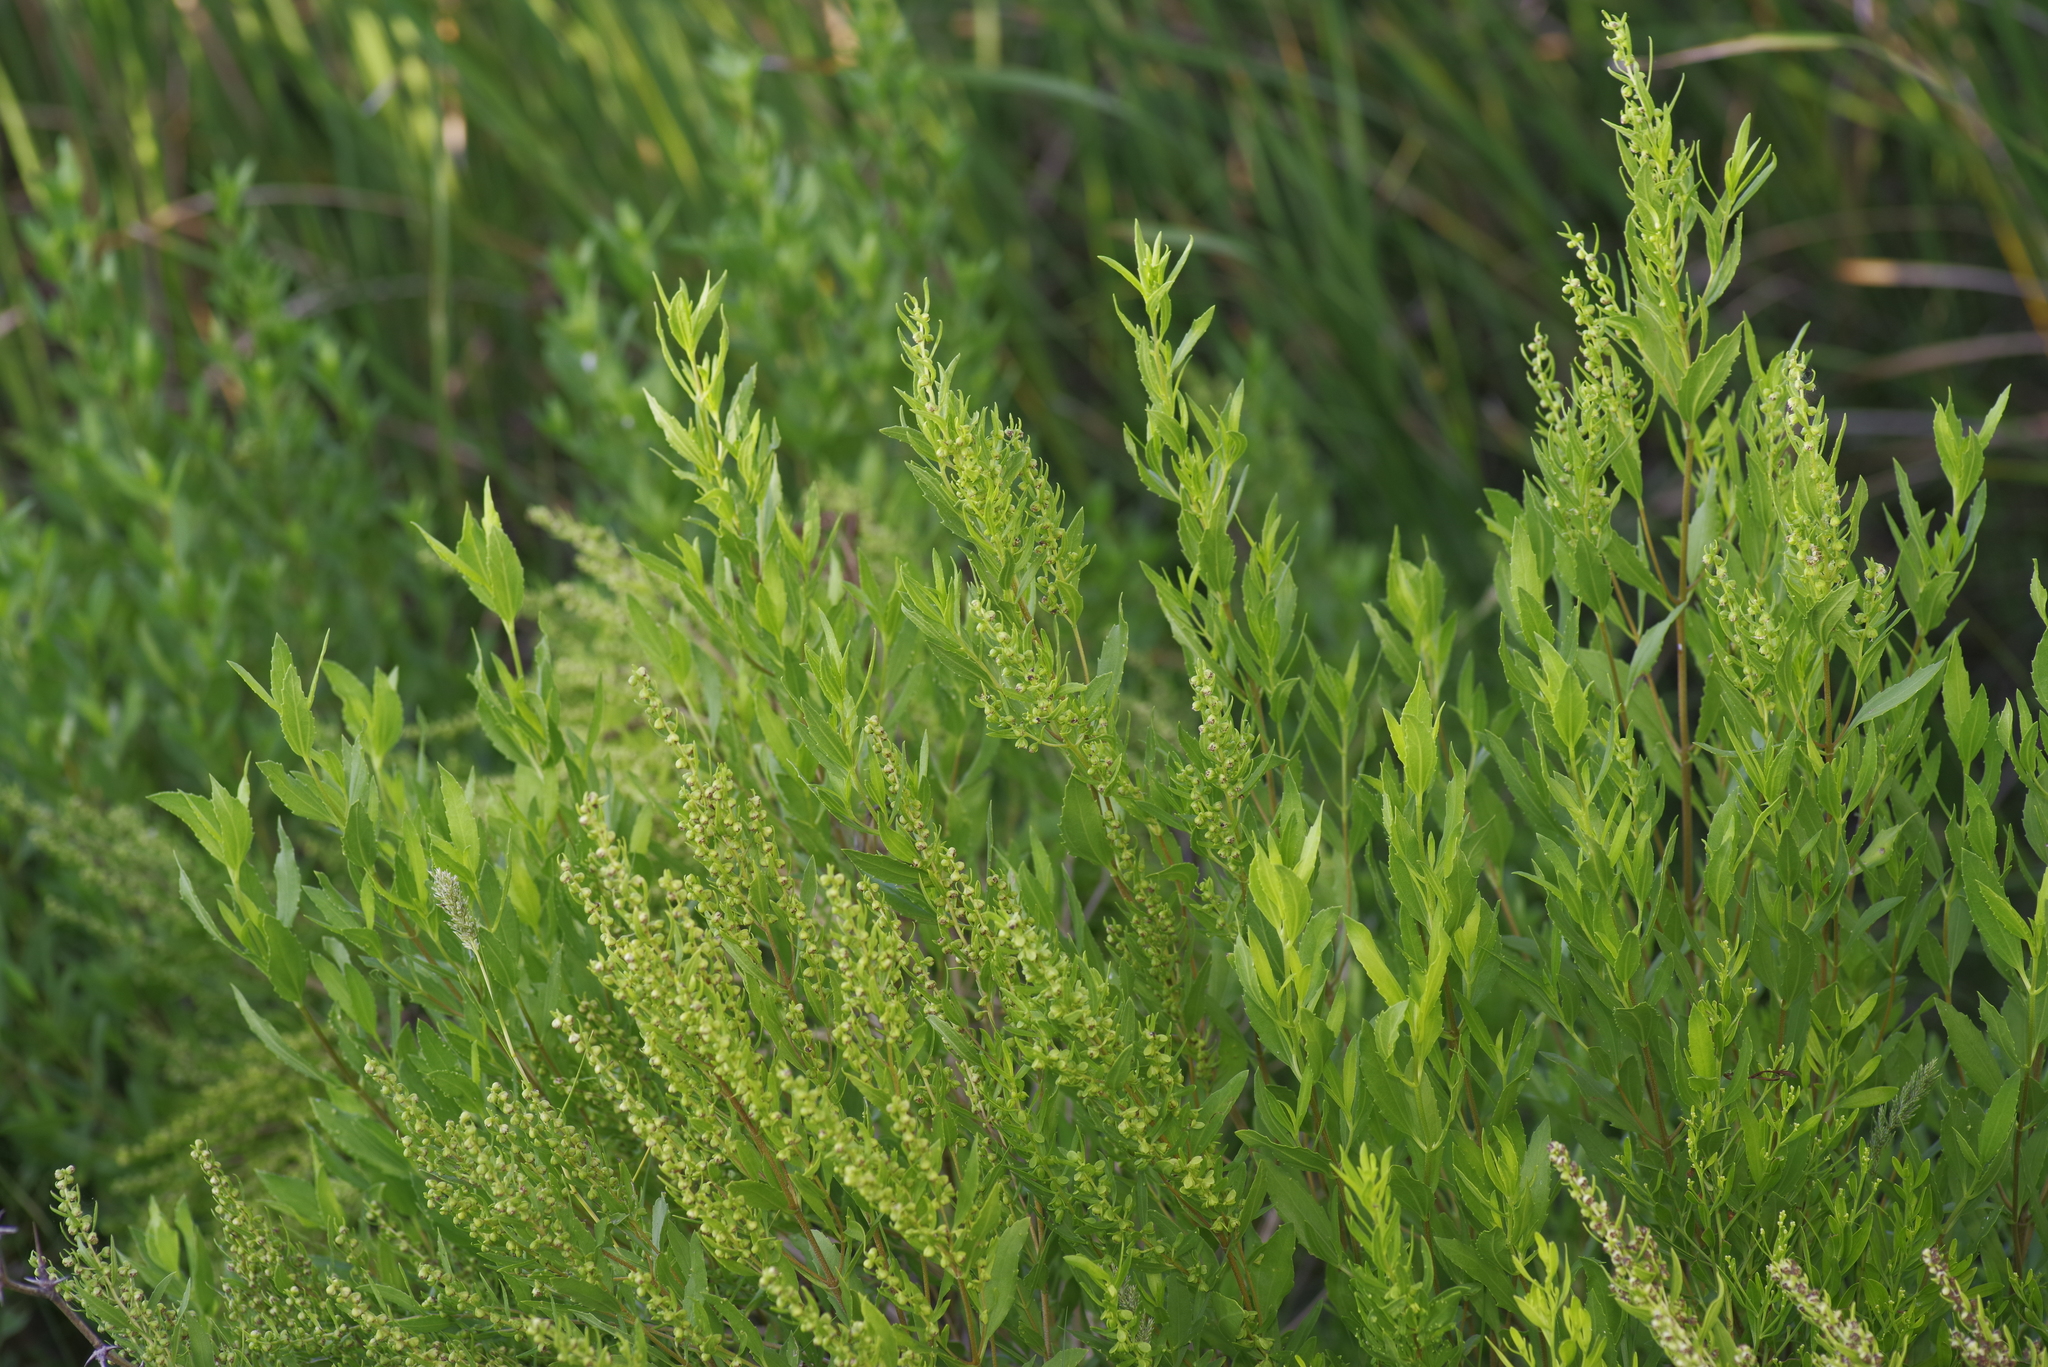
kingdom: Plantae
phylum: Tracheophyta
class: Magnoliopsida
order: Asterales
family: Asteraceae
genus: Iva
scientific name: Iva frutescens
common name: Big-leaved marsh-elder
